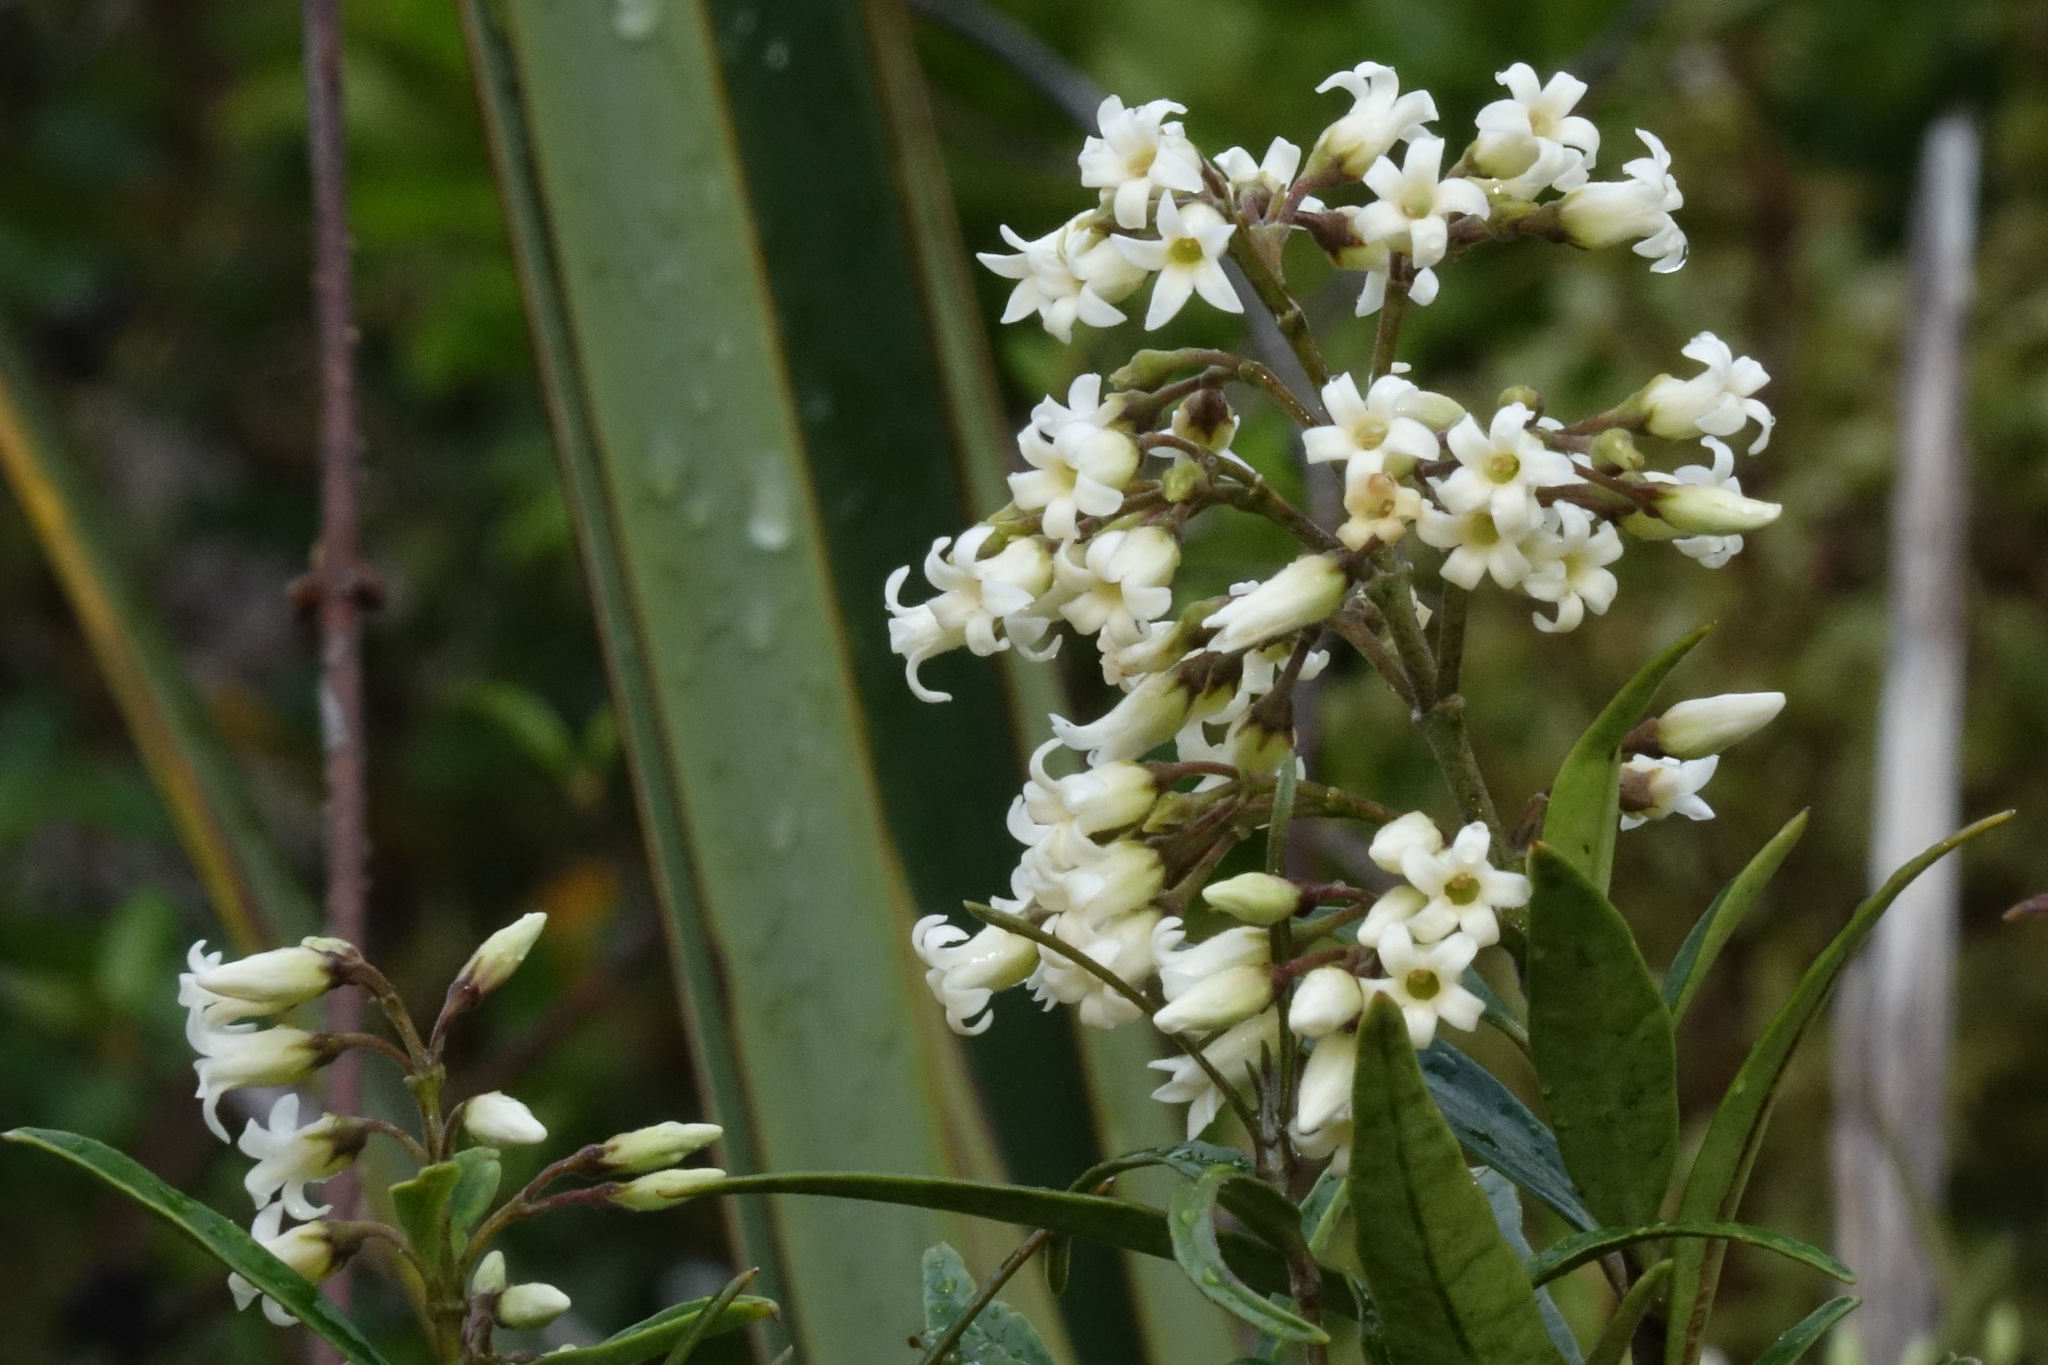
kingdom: Plantae
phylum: Tracheophyta
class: Magnoliopsida
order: Gentianales
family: Apocynaceae
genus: Parsonsia
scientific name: Parsonsia heterophylla
